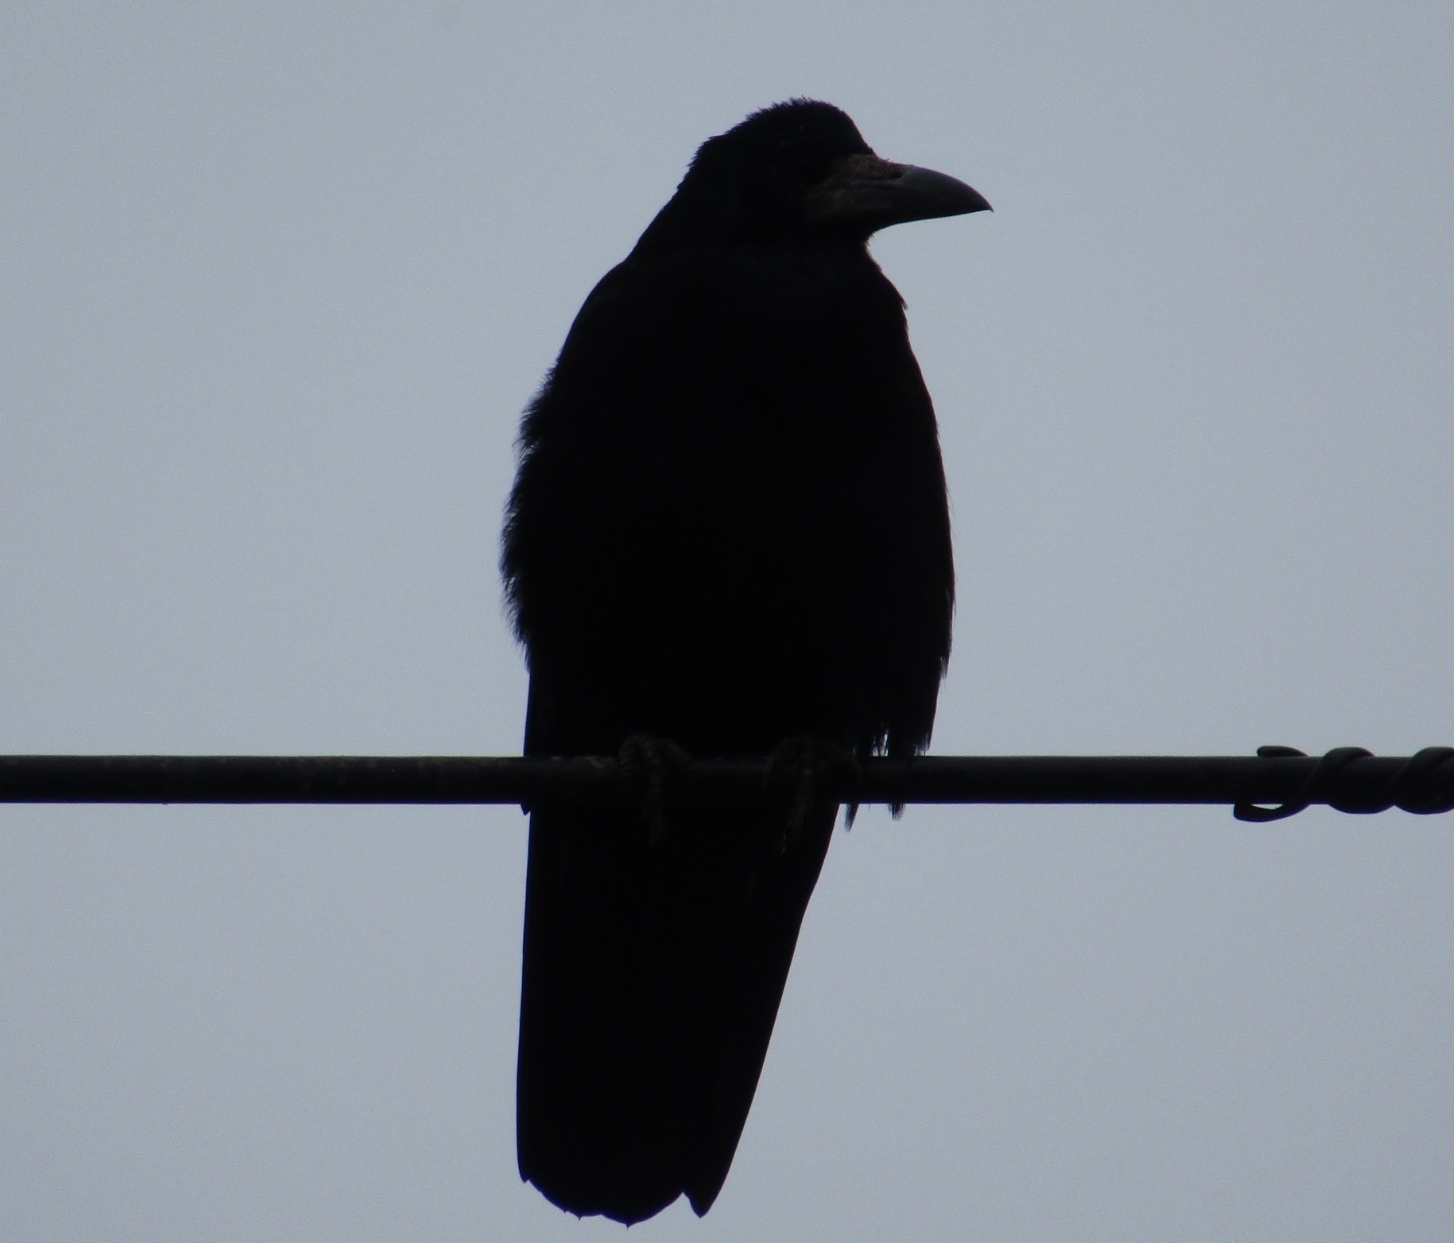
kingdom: Animalia
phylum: Chordata
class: Aves
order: Passeriformes
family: Corvidae
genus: Corvus
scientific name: Corvus frugilegus
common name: Rook
